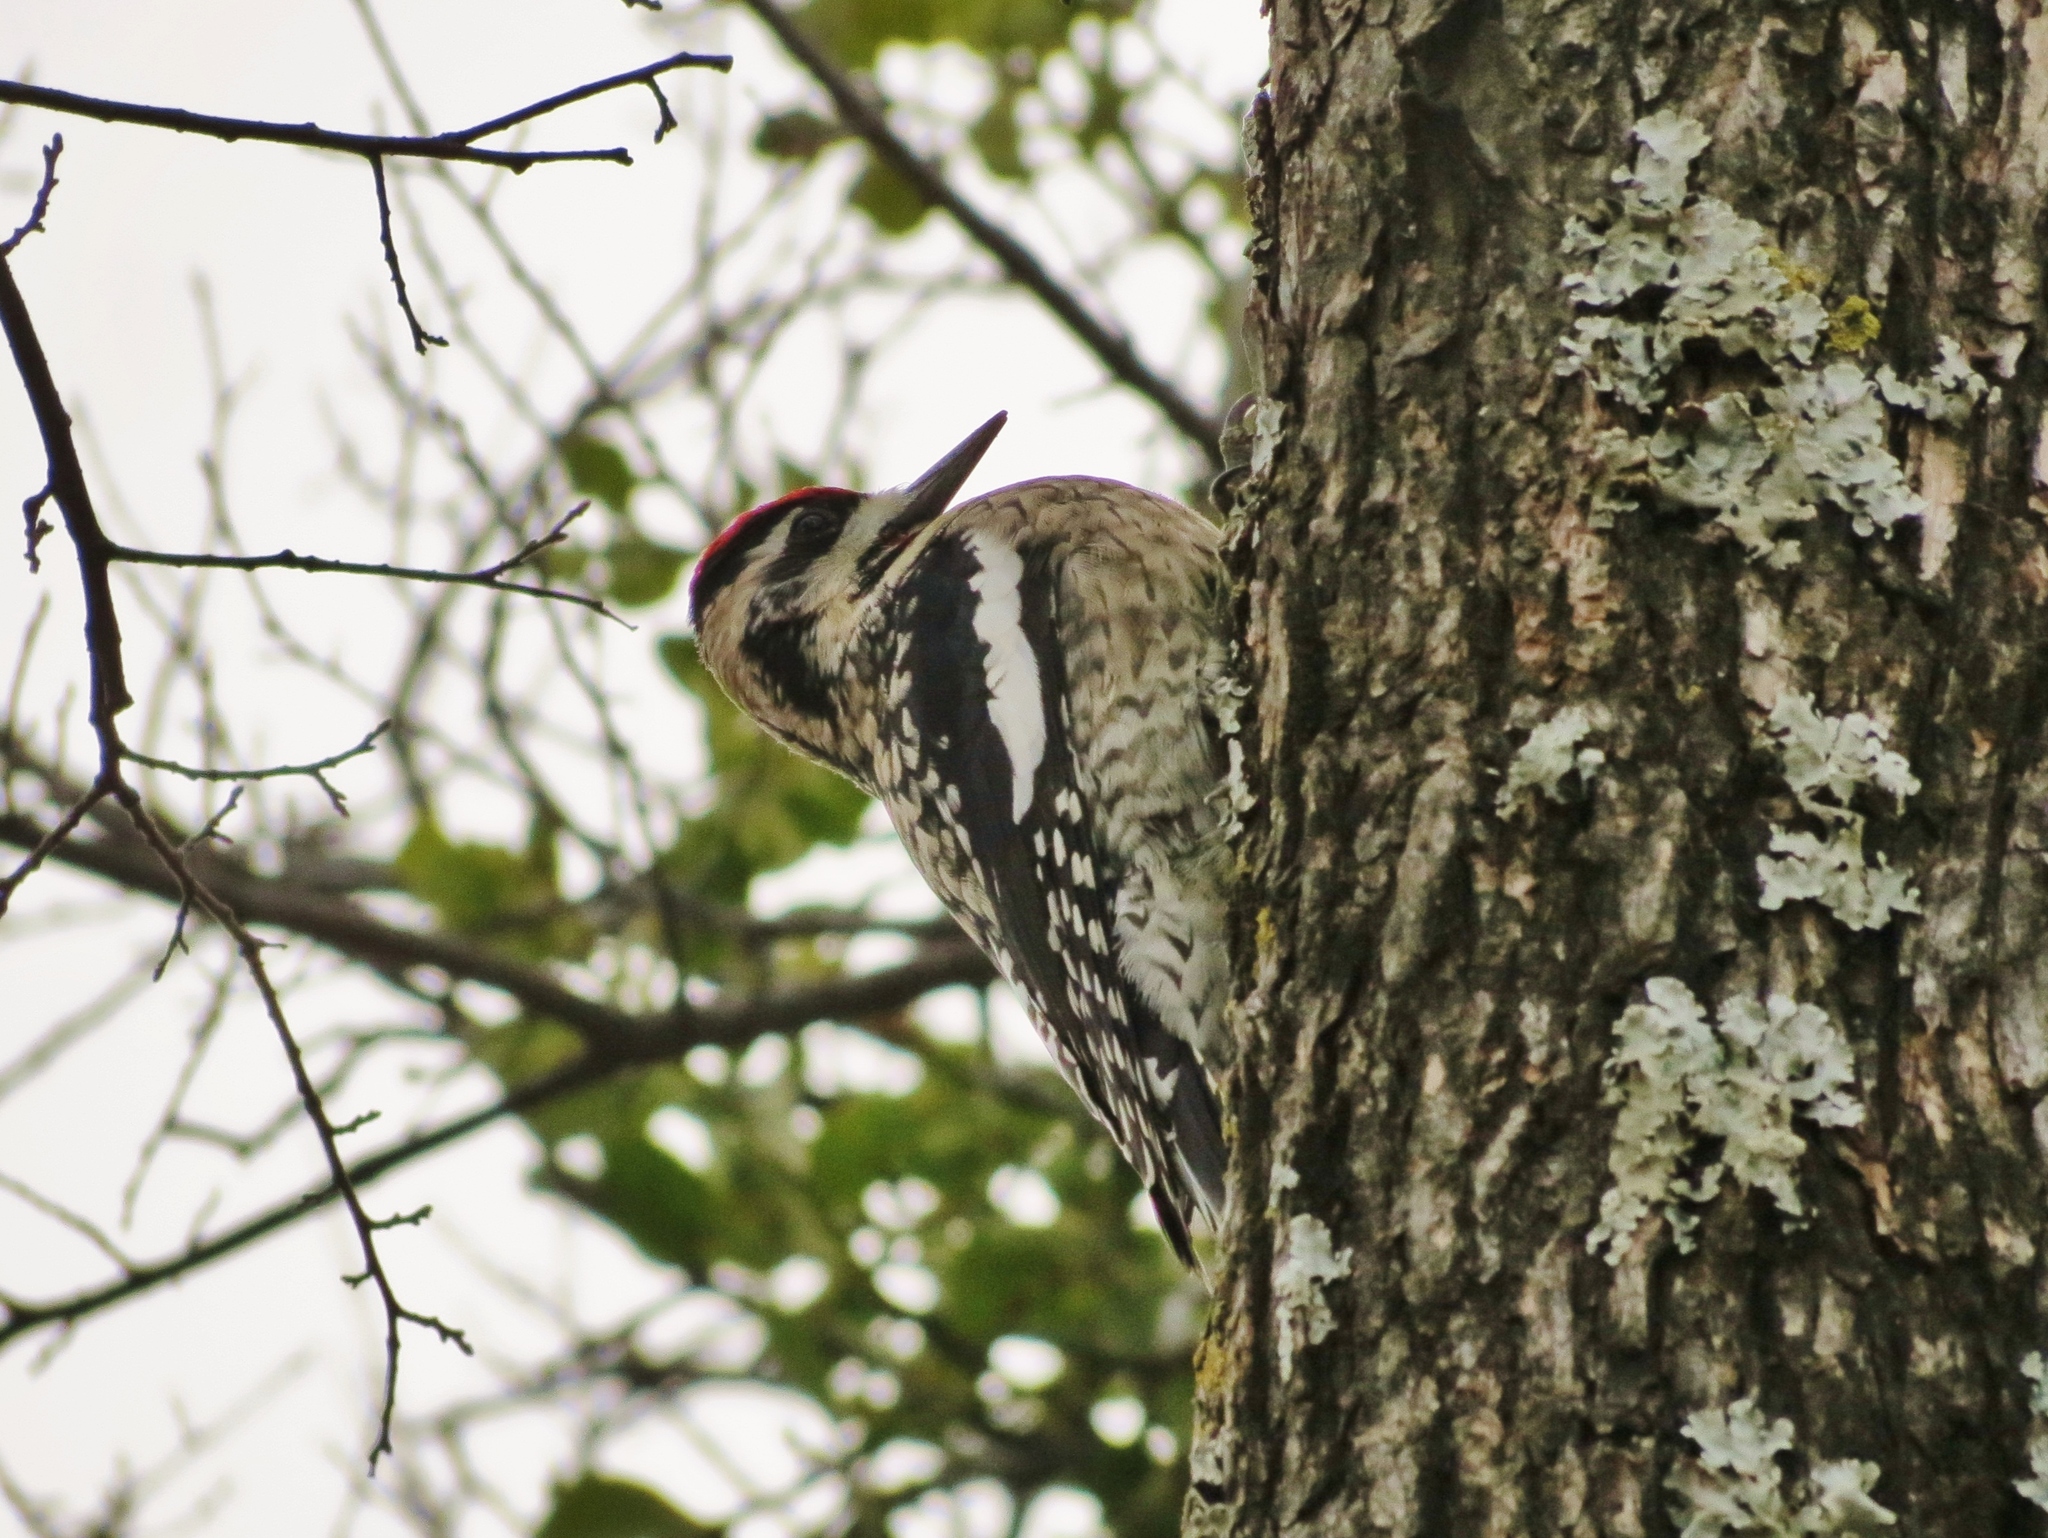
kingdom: Animalia
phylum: Chordata
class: Aves
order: Piciformes
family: Picidae
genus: Sphyrapicus
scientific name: Sphyrapicus varius
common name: Yellow-bellied sapsucker
